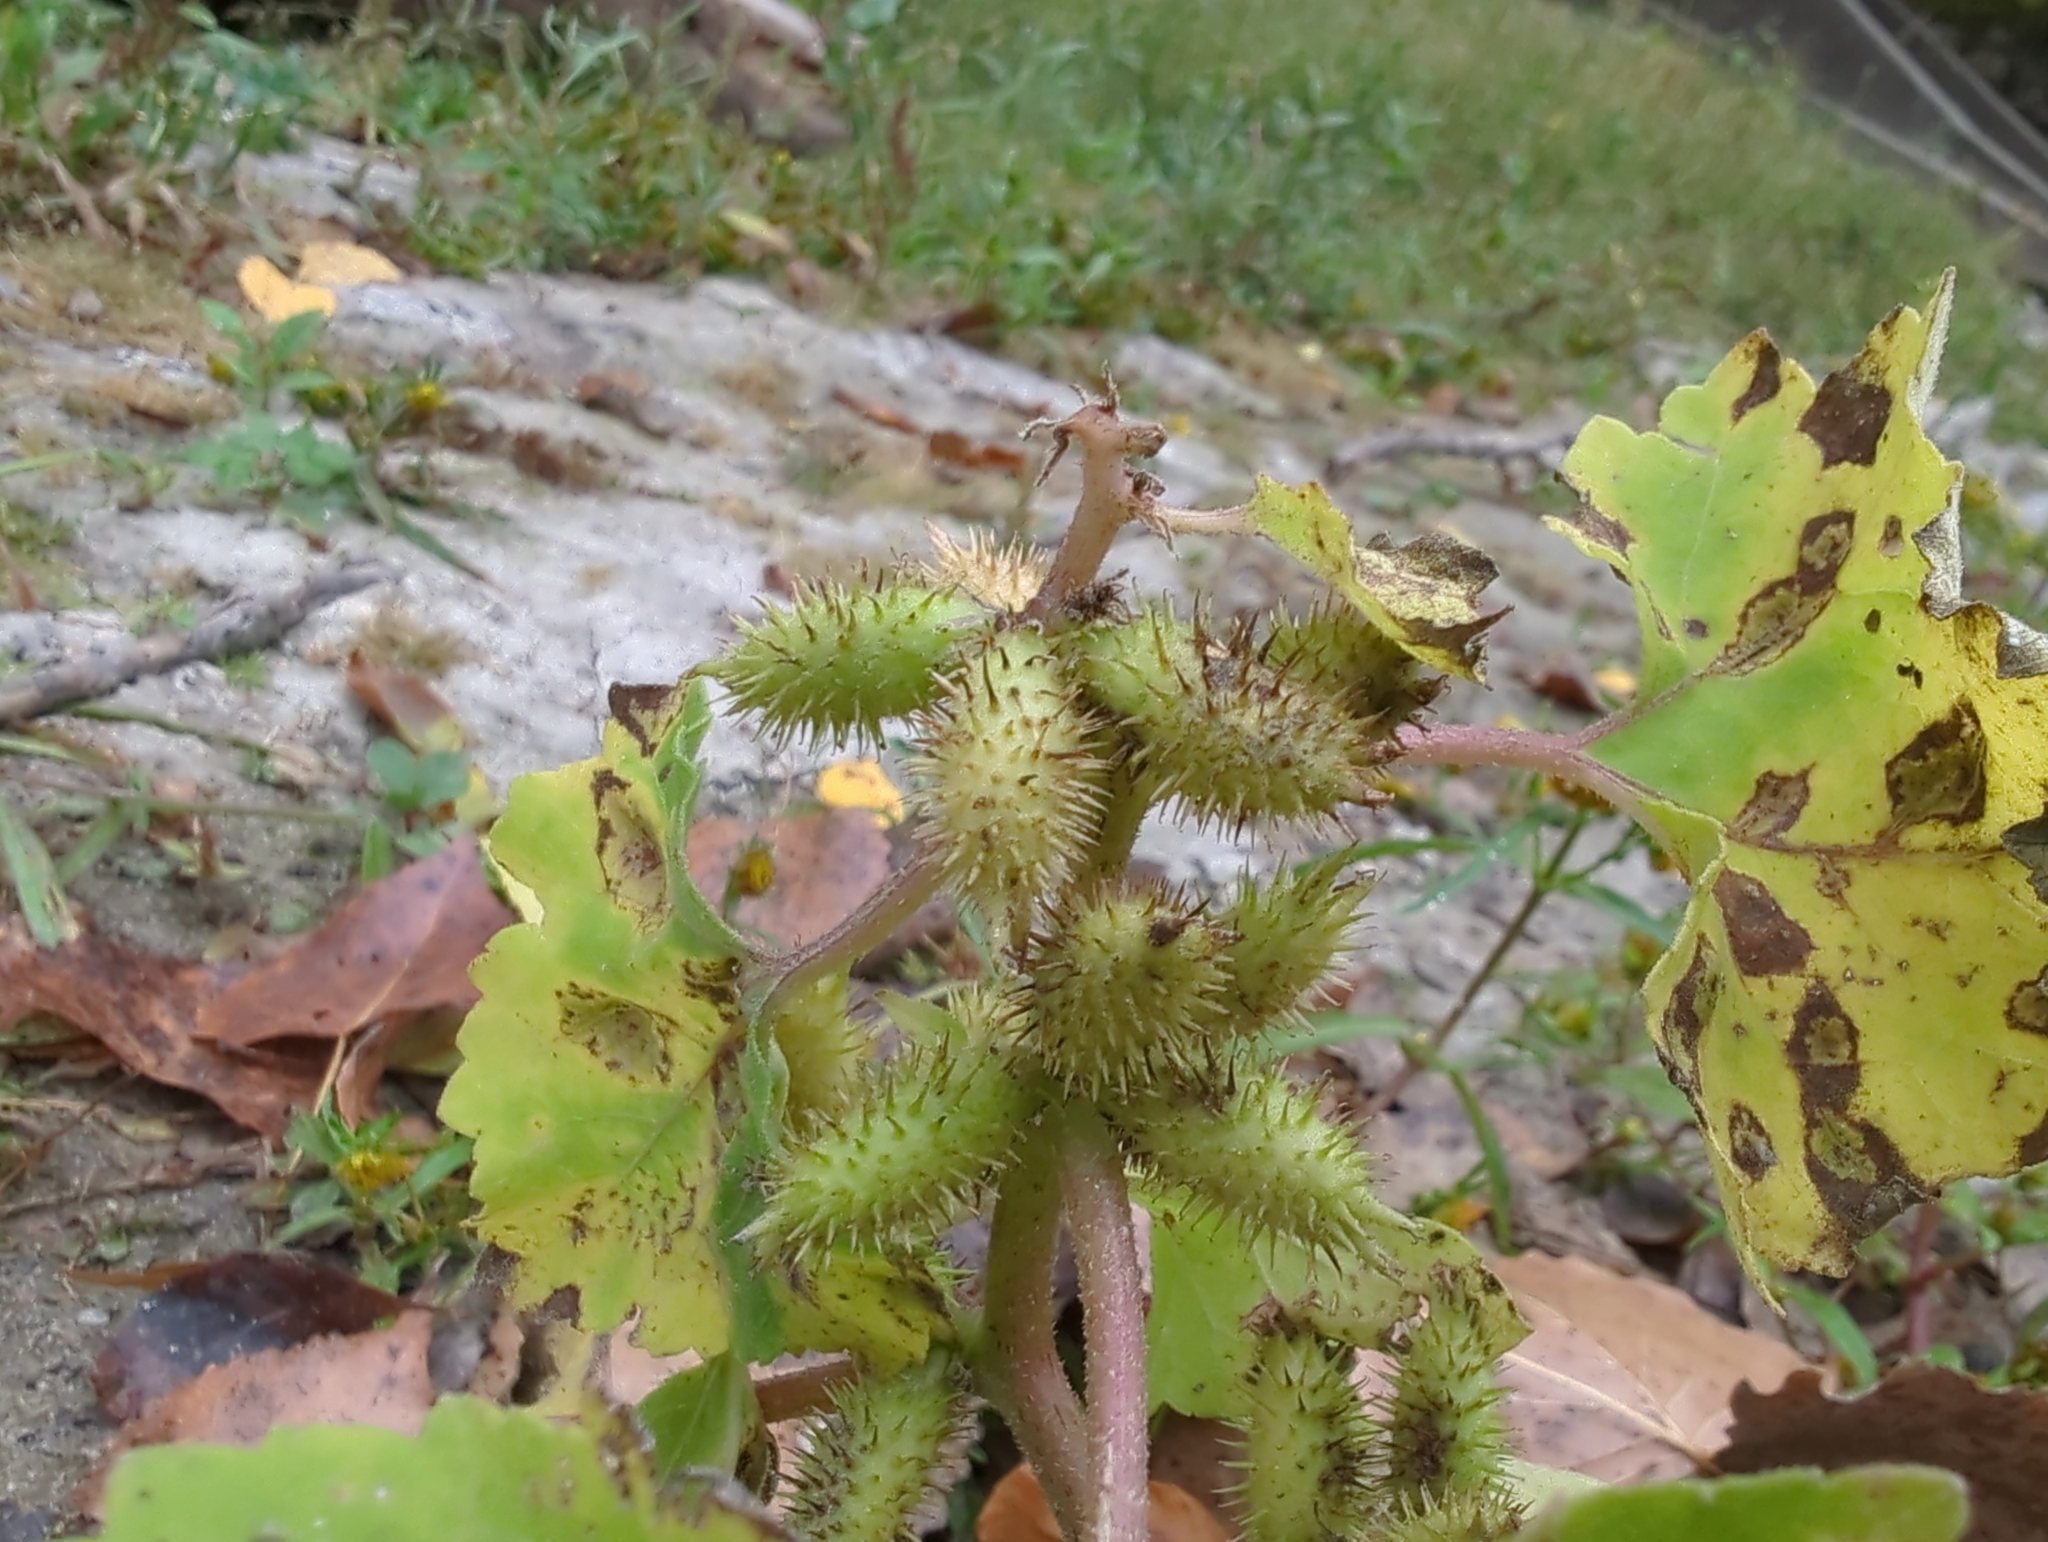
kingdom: Plantae
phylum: Tracheophyta
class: Magnoliopsida
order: Asterales
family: Asteraceae
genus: Xanthium
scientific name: Xanthium strumarium
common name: Rough cocklebur
